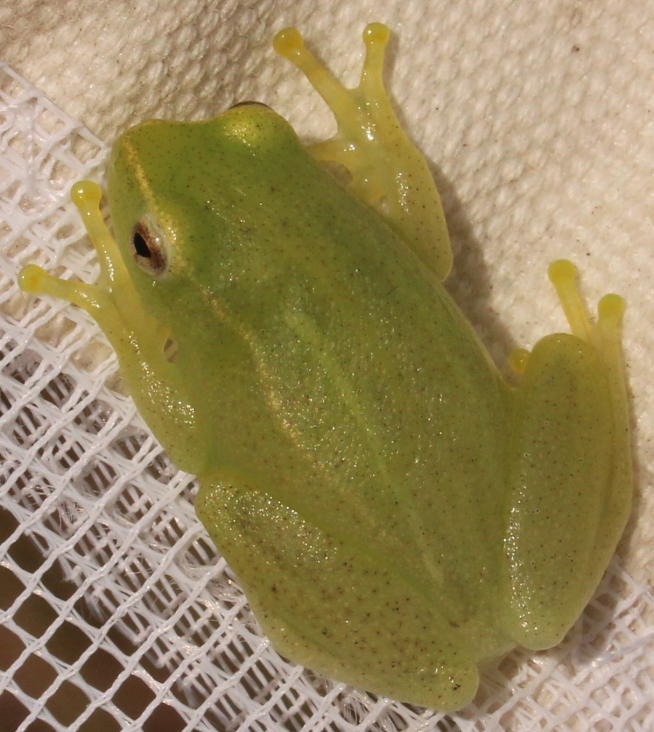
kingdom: Animalia
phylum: Chordata
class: Amphibia
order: Anura
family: Hyperoliidae
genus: Hyperolius
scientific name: Hyperolius pusillus
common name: Water lily reed frog
